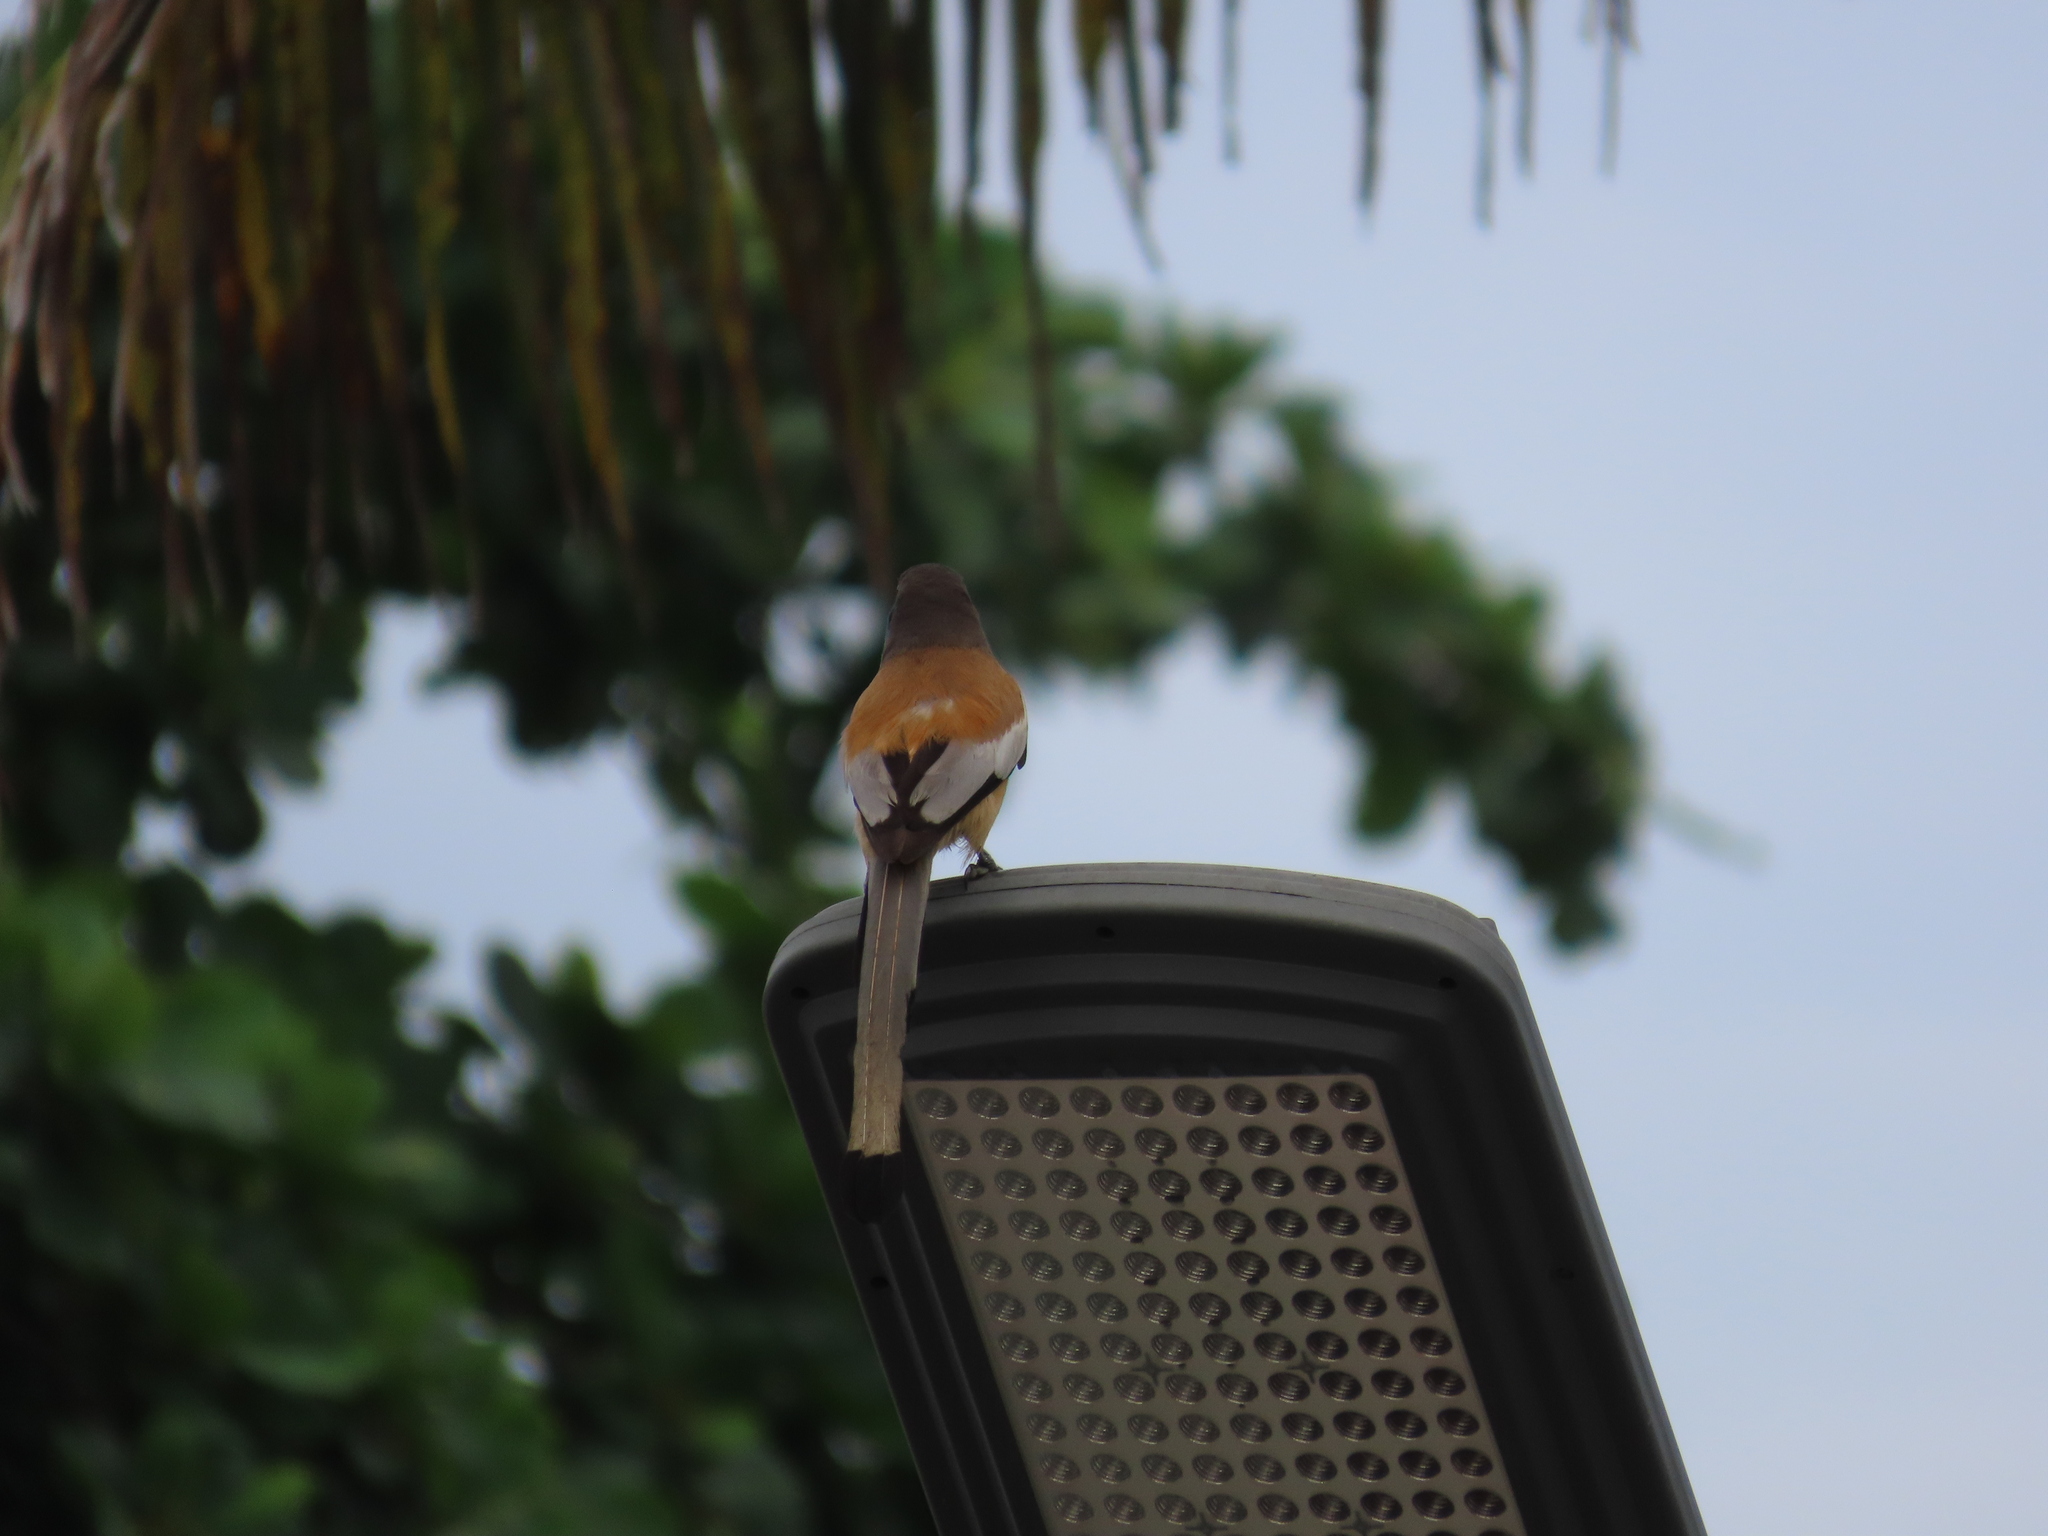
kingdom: Animalia
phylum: Chordata
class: Aves
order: Passeriformes
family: Corvidae
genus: Dendrocitta
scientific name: Dendrocitta vagabunda
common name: Rufous treepie
